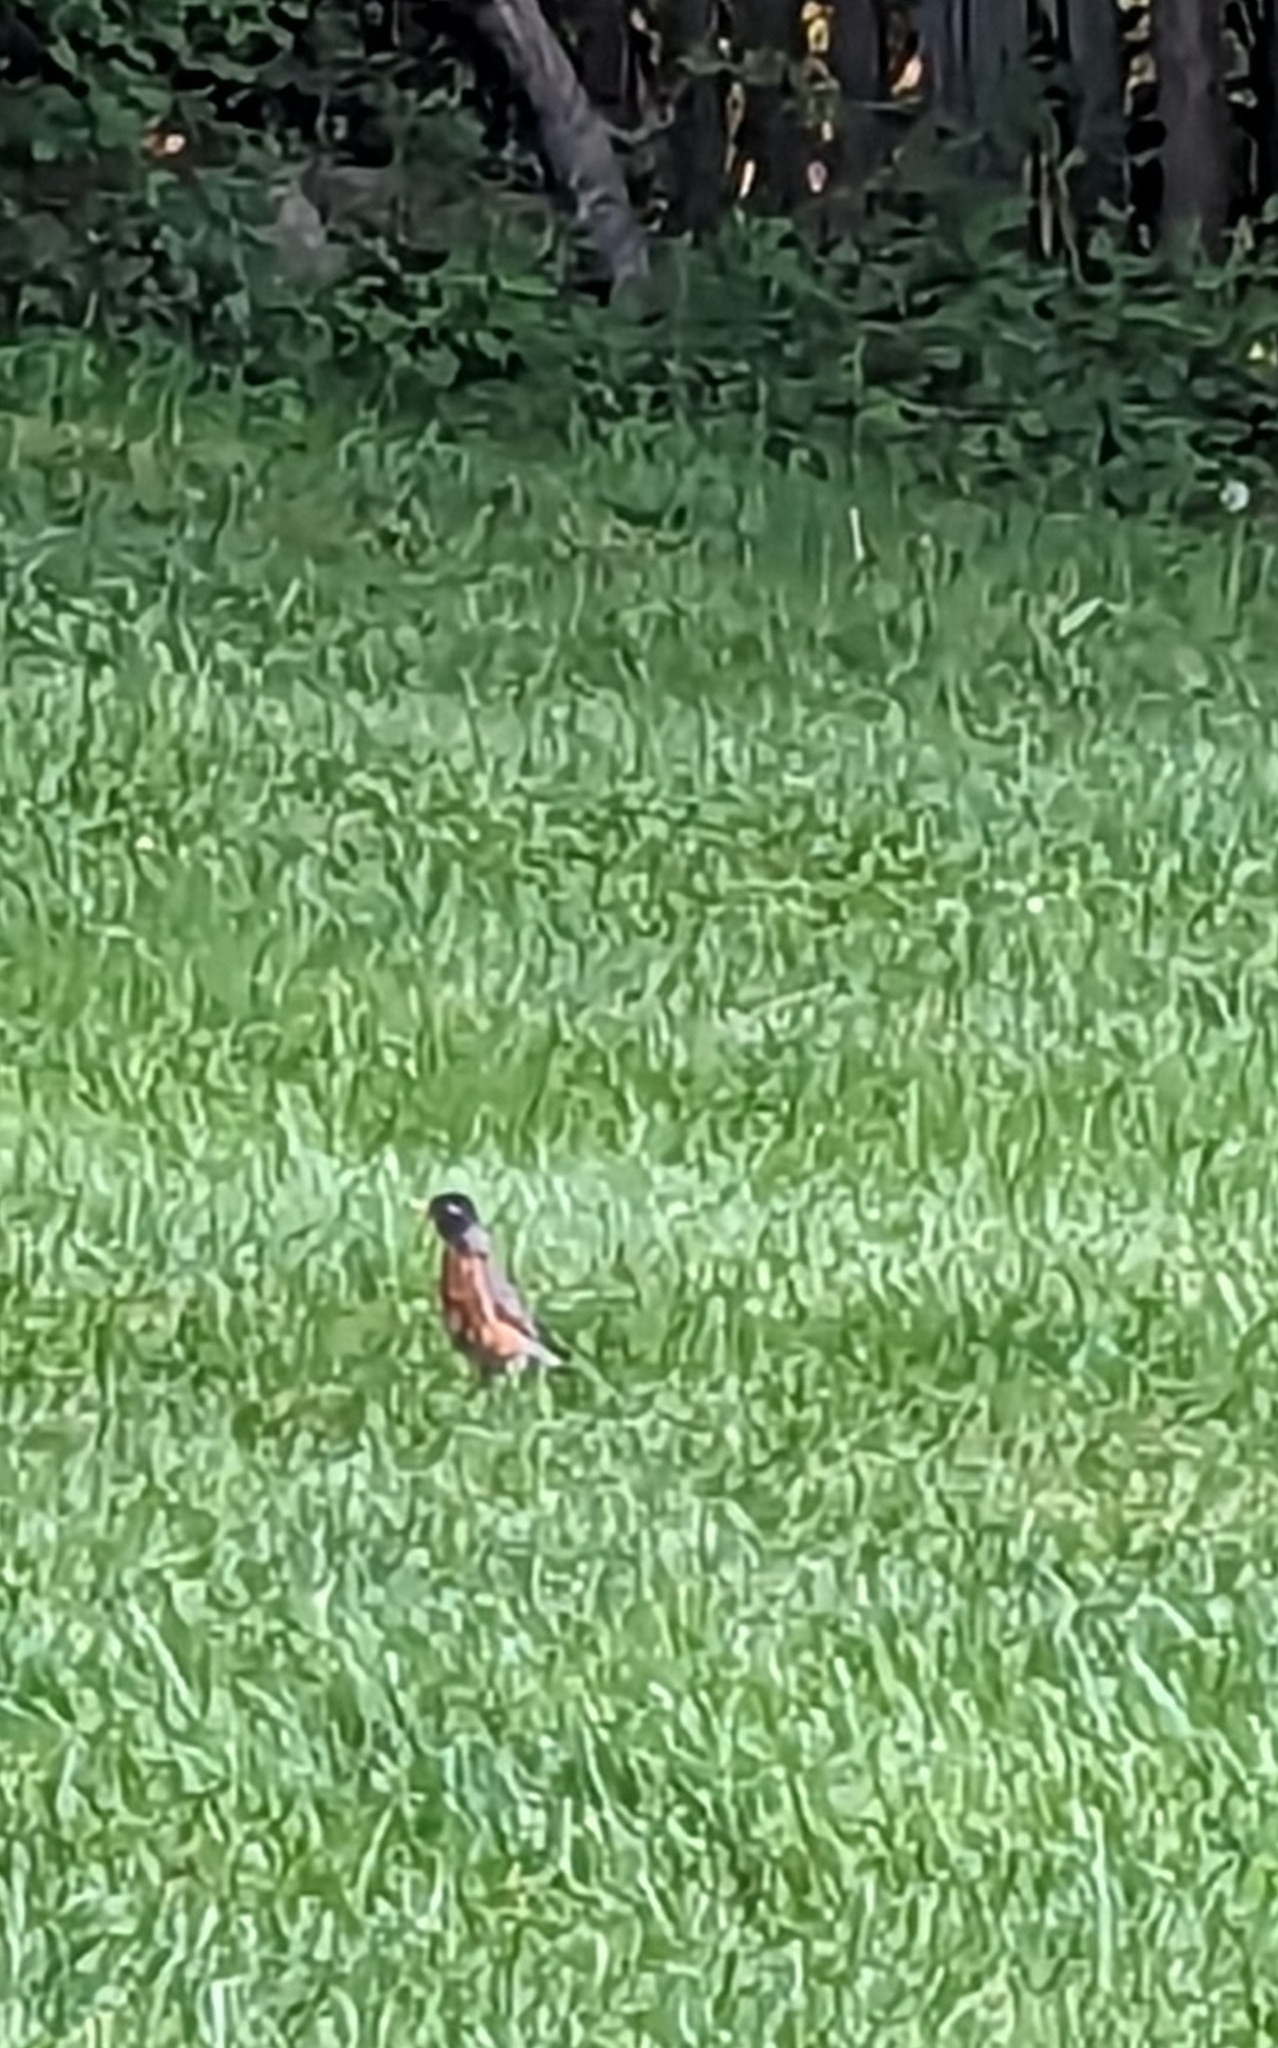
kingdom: Animalia
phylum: Chordata
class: Aves
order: Passeriformes
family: Turdidae
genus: Turdus
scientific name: Turdus migratorius
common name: American robin
